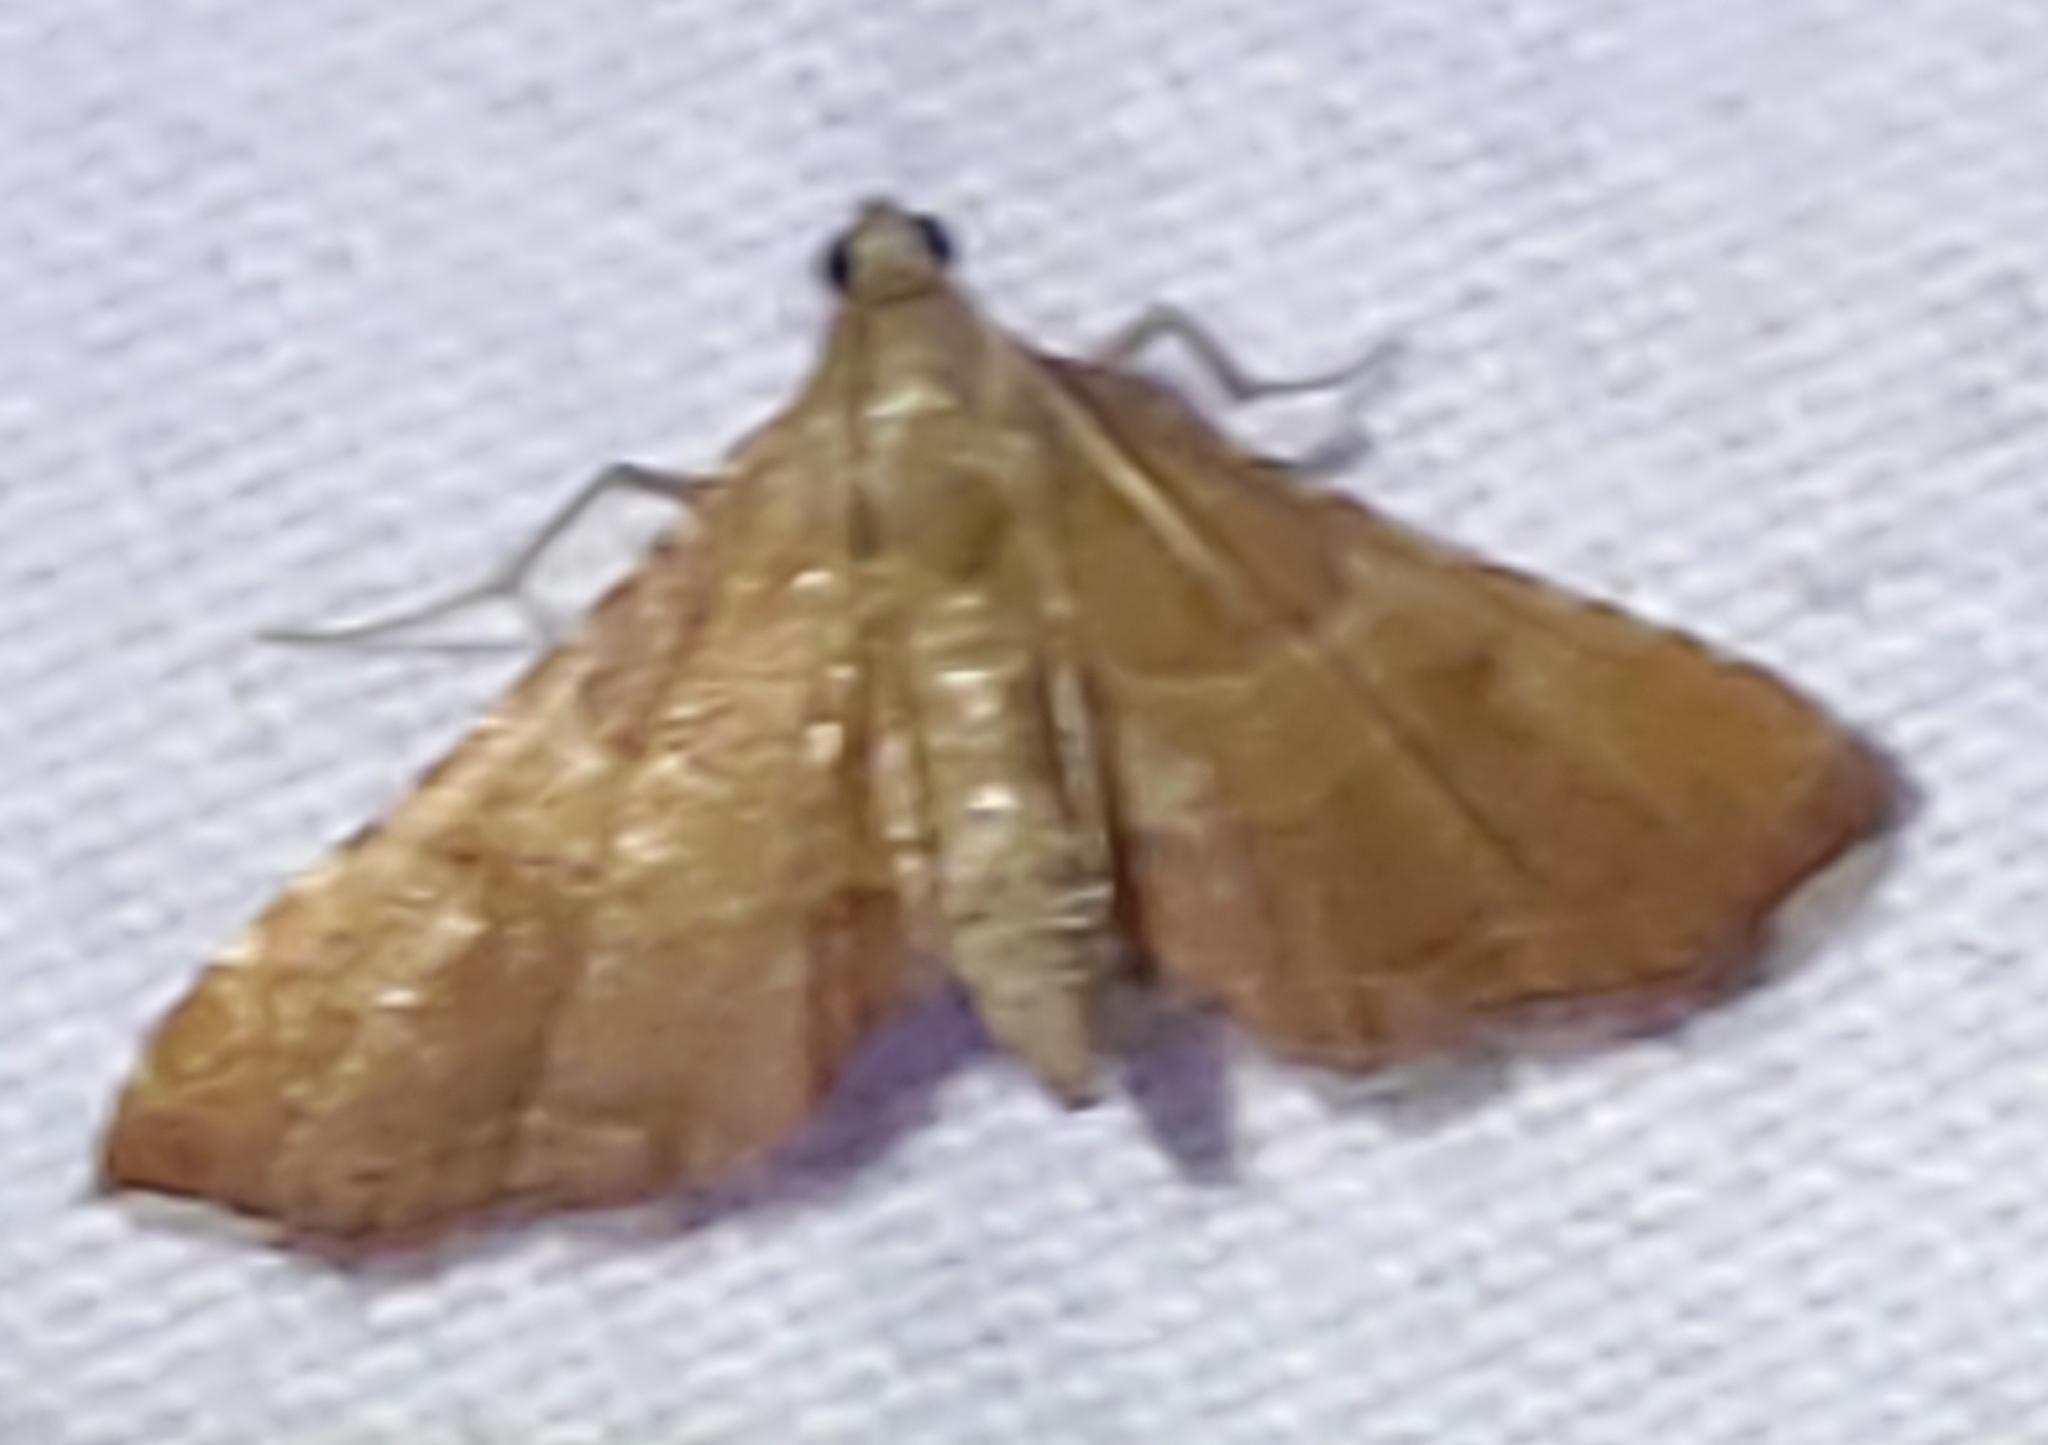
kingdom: Animalia
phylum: Arthropoda
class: Insecta
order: Lepidoptera
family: Pyralidae
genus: Endotricha
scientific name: Endotricha flammealis
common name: Rosy tabby
